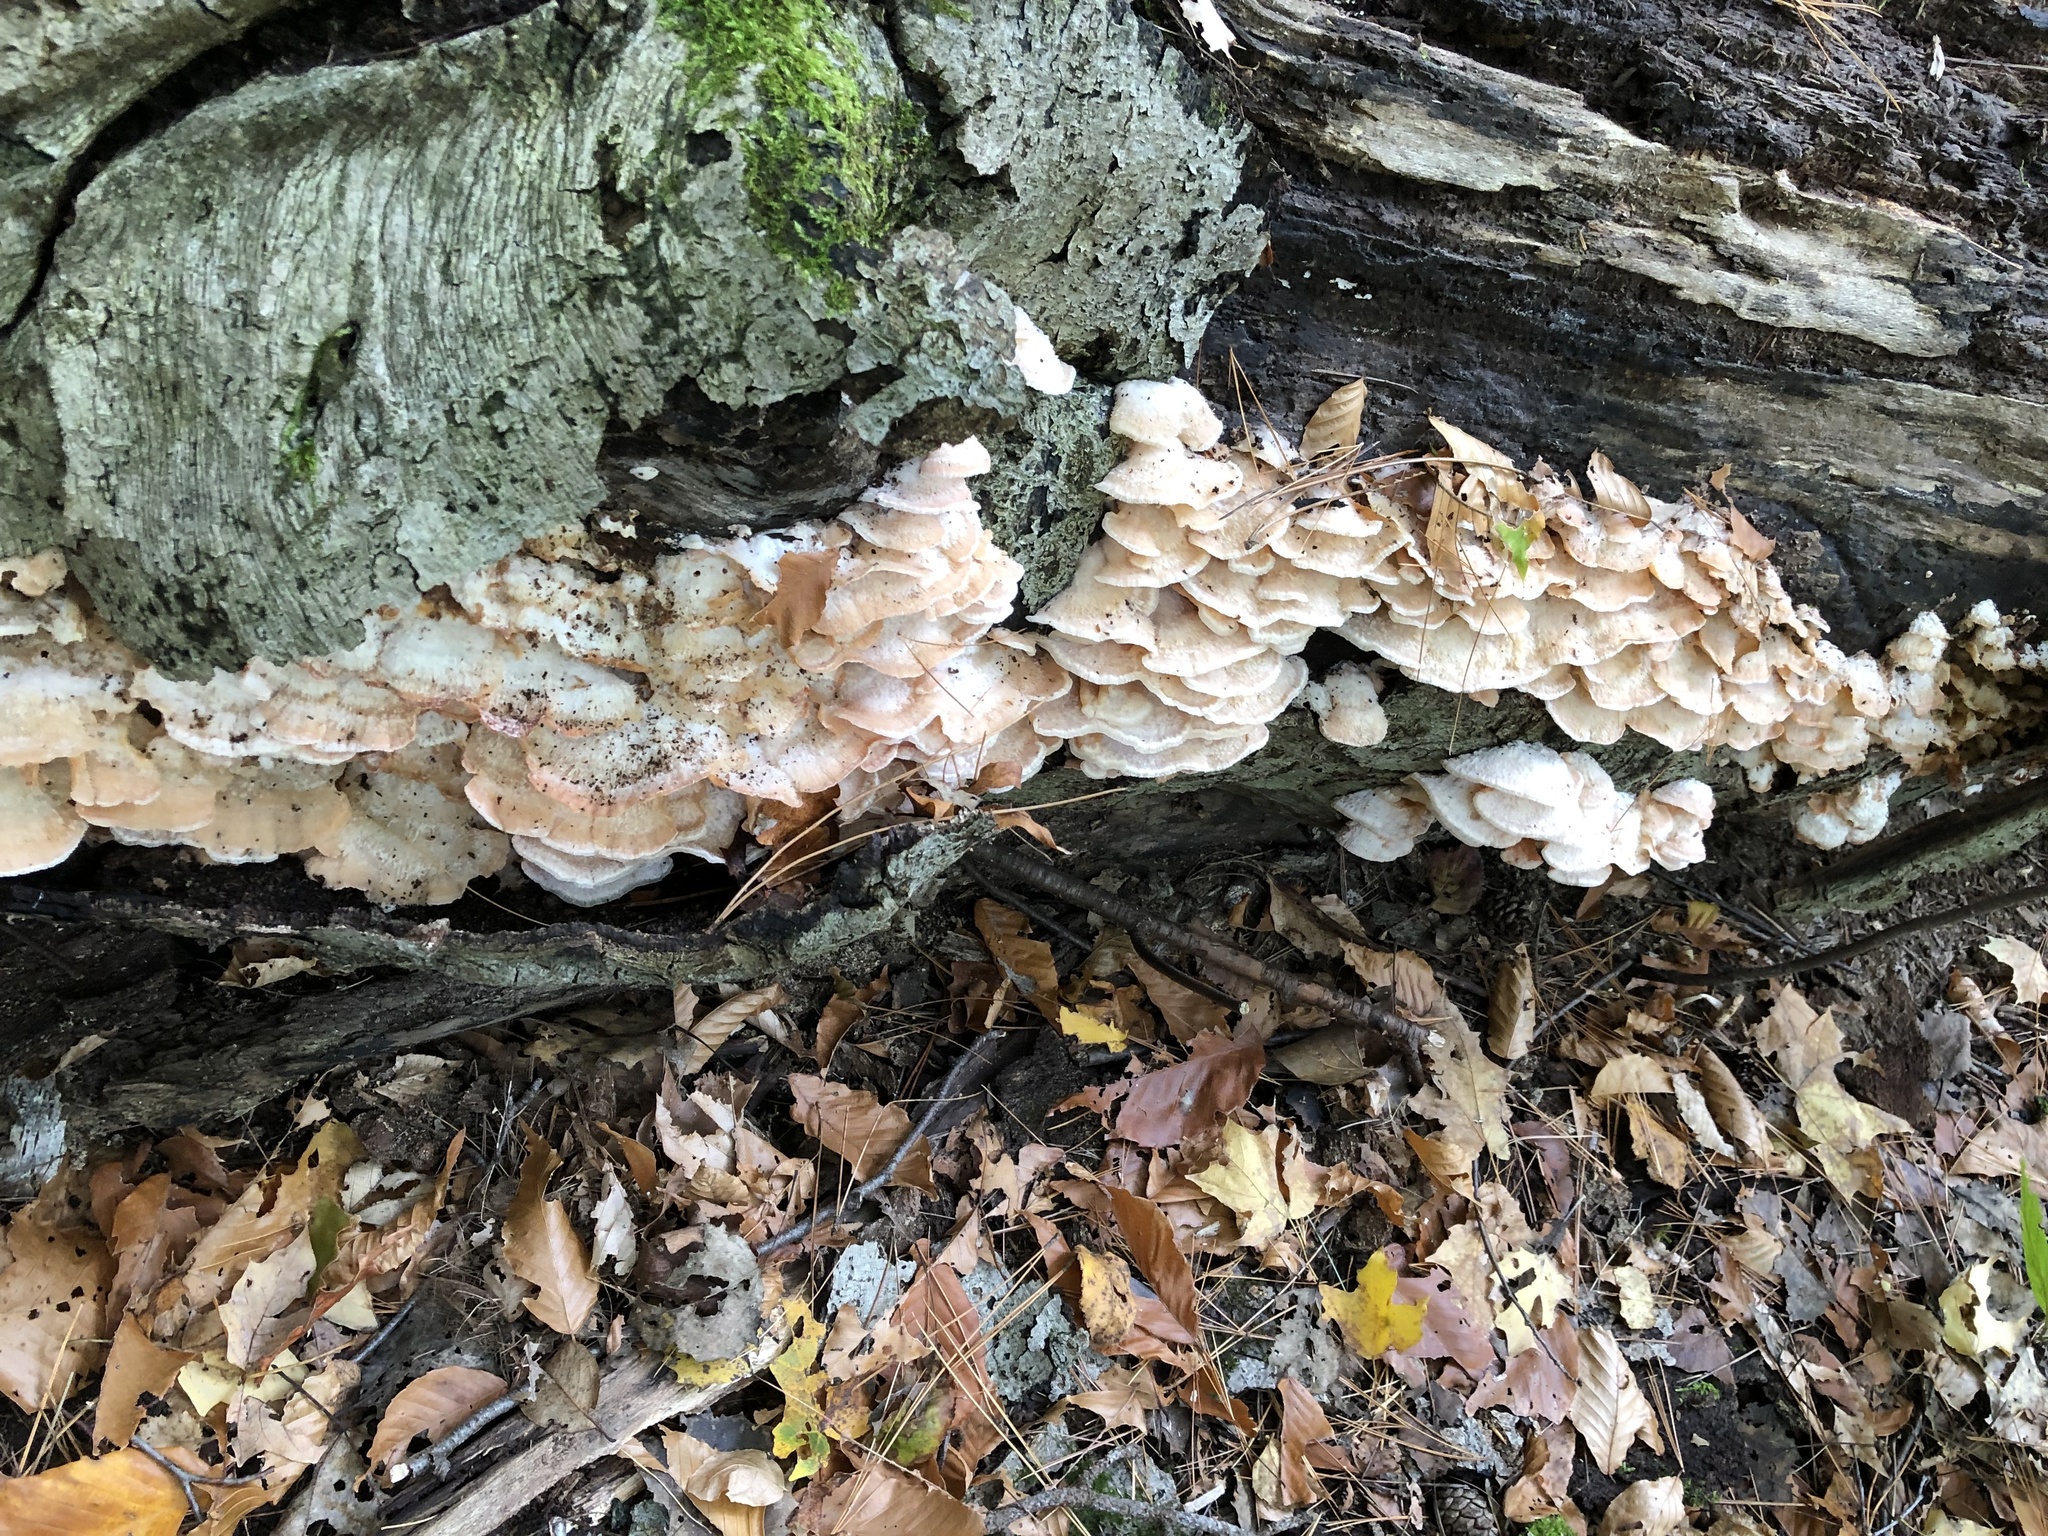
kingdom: Fungi
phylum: Basidiomycota
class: Agaricomycetes
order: Polyporales
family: Meruliaceae
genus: Phlebia
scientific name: Phlebia tremellosa
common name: Jelly rot
